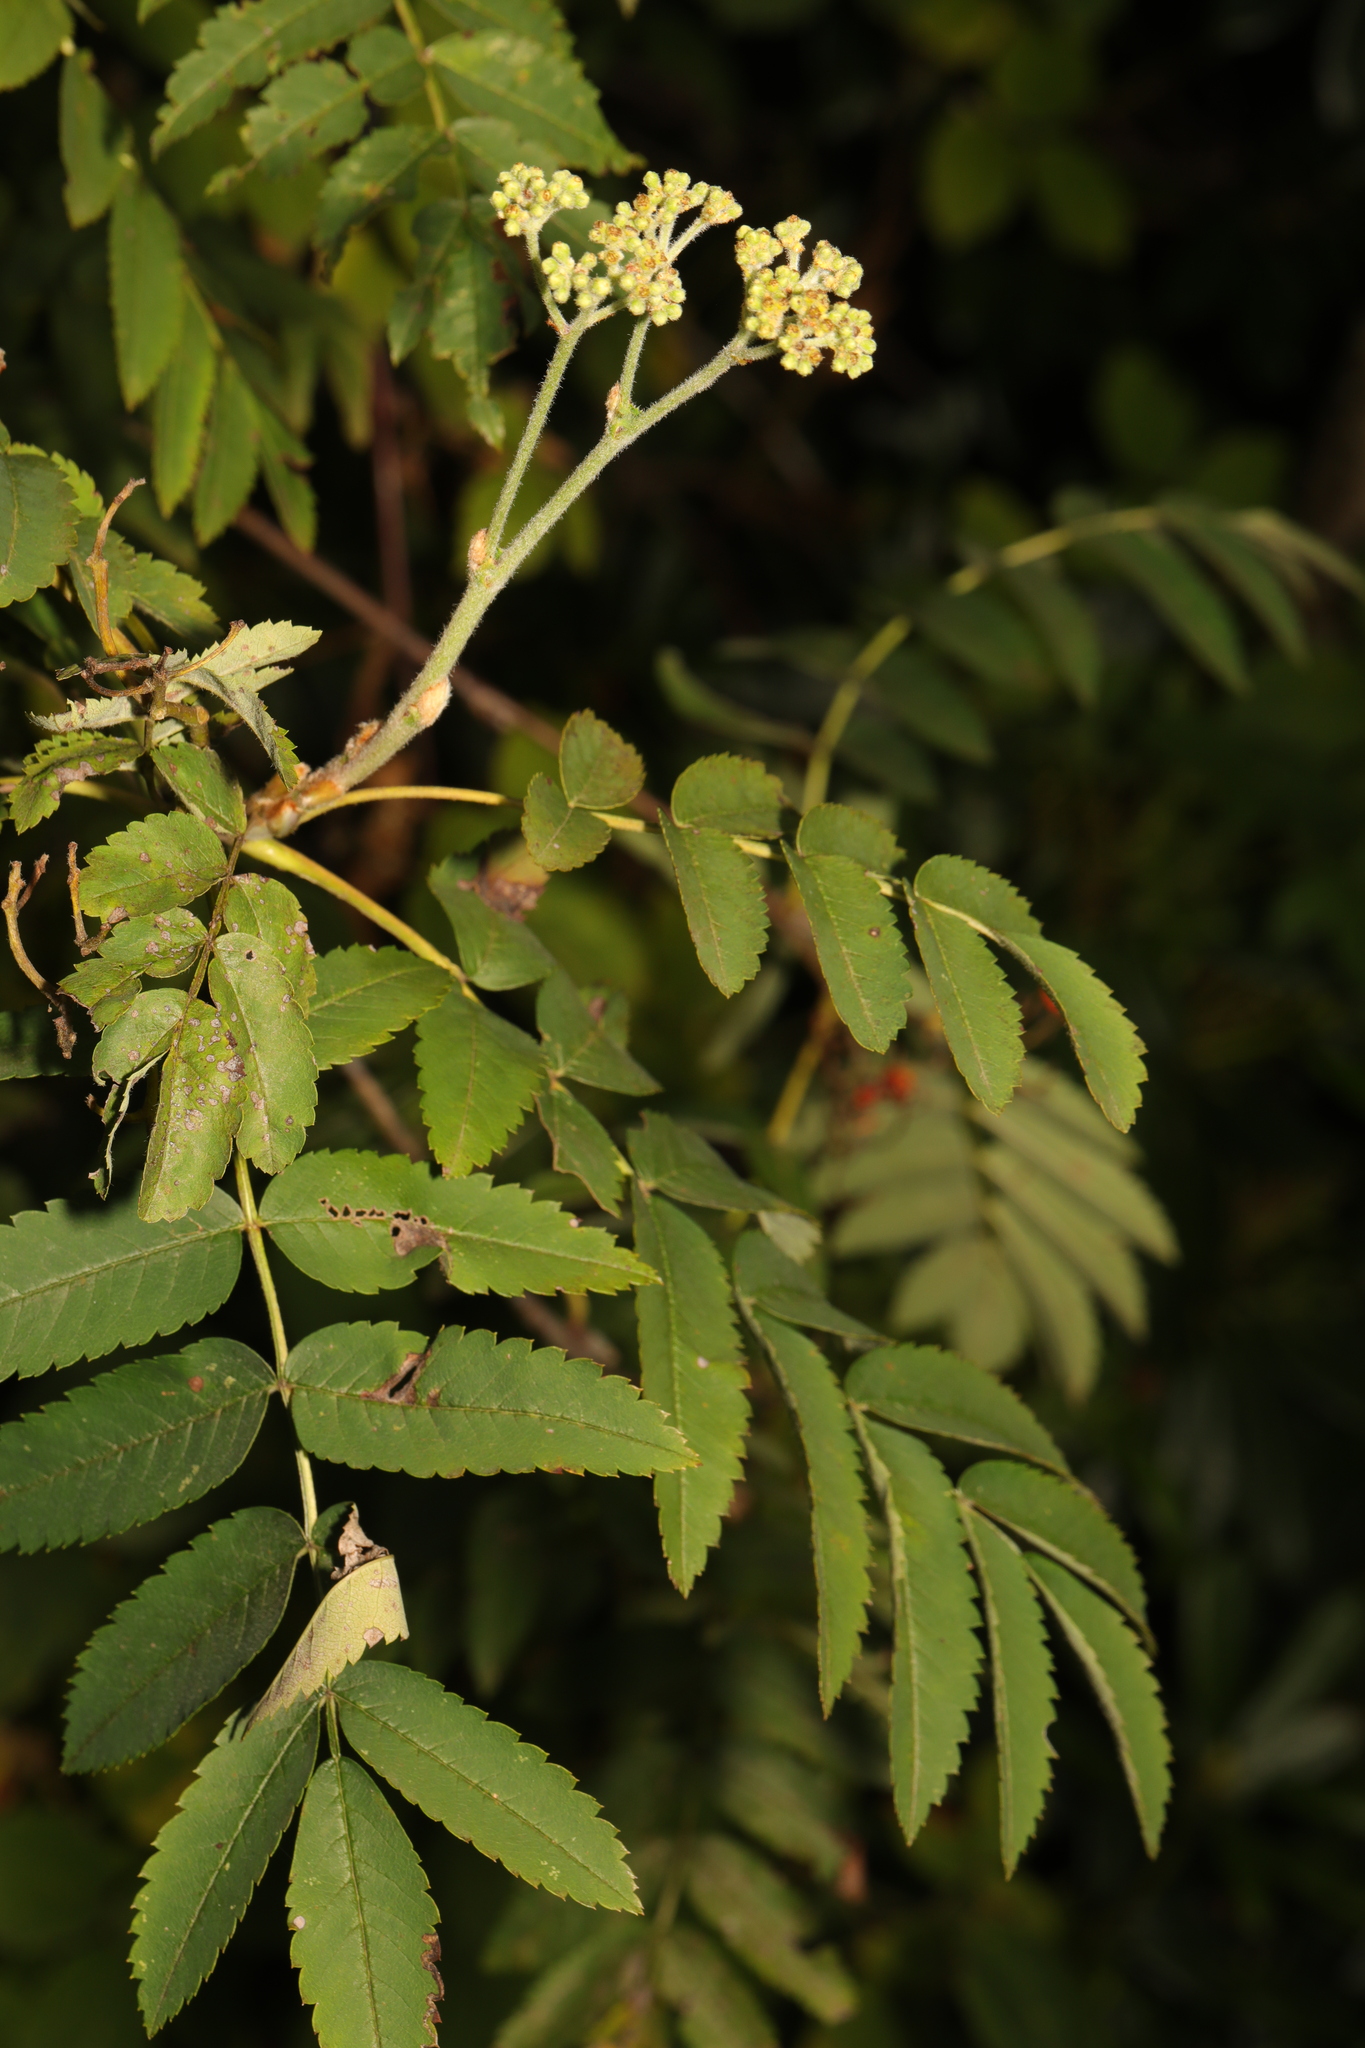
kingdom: Plantae
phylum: Tracheophyta
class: Magnoliopsida
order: Rosales
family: Rosaceae
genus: Sorbus
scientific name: Sorbus aucuparia
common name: Rowan
